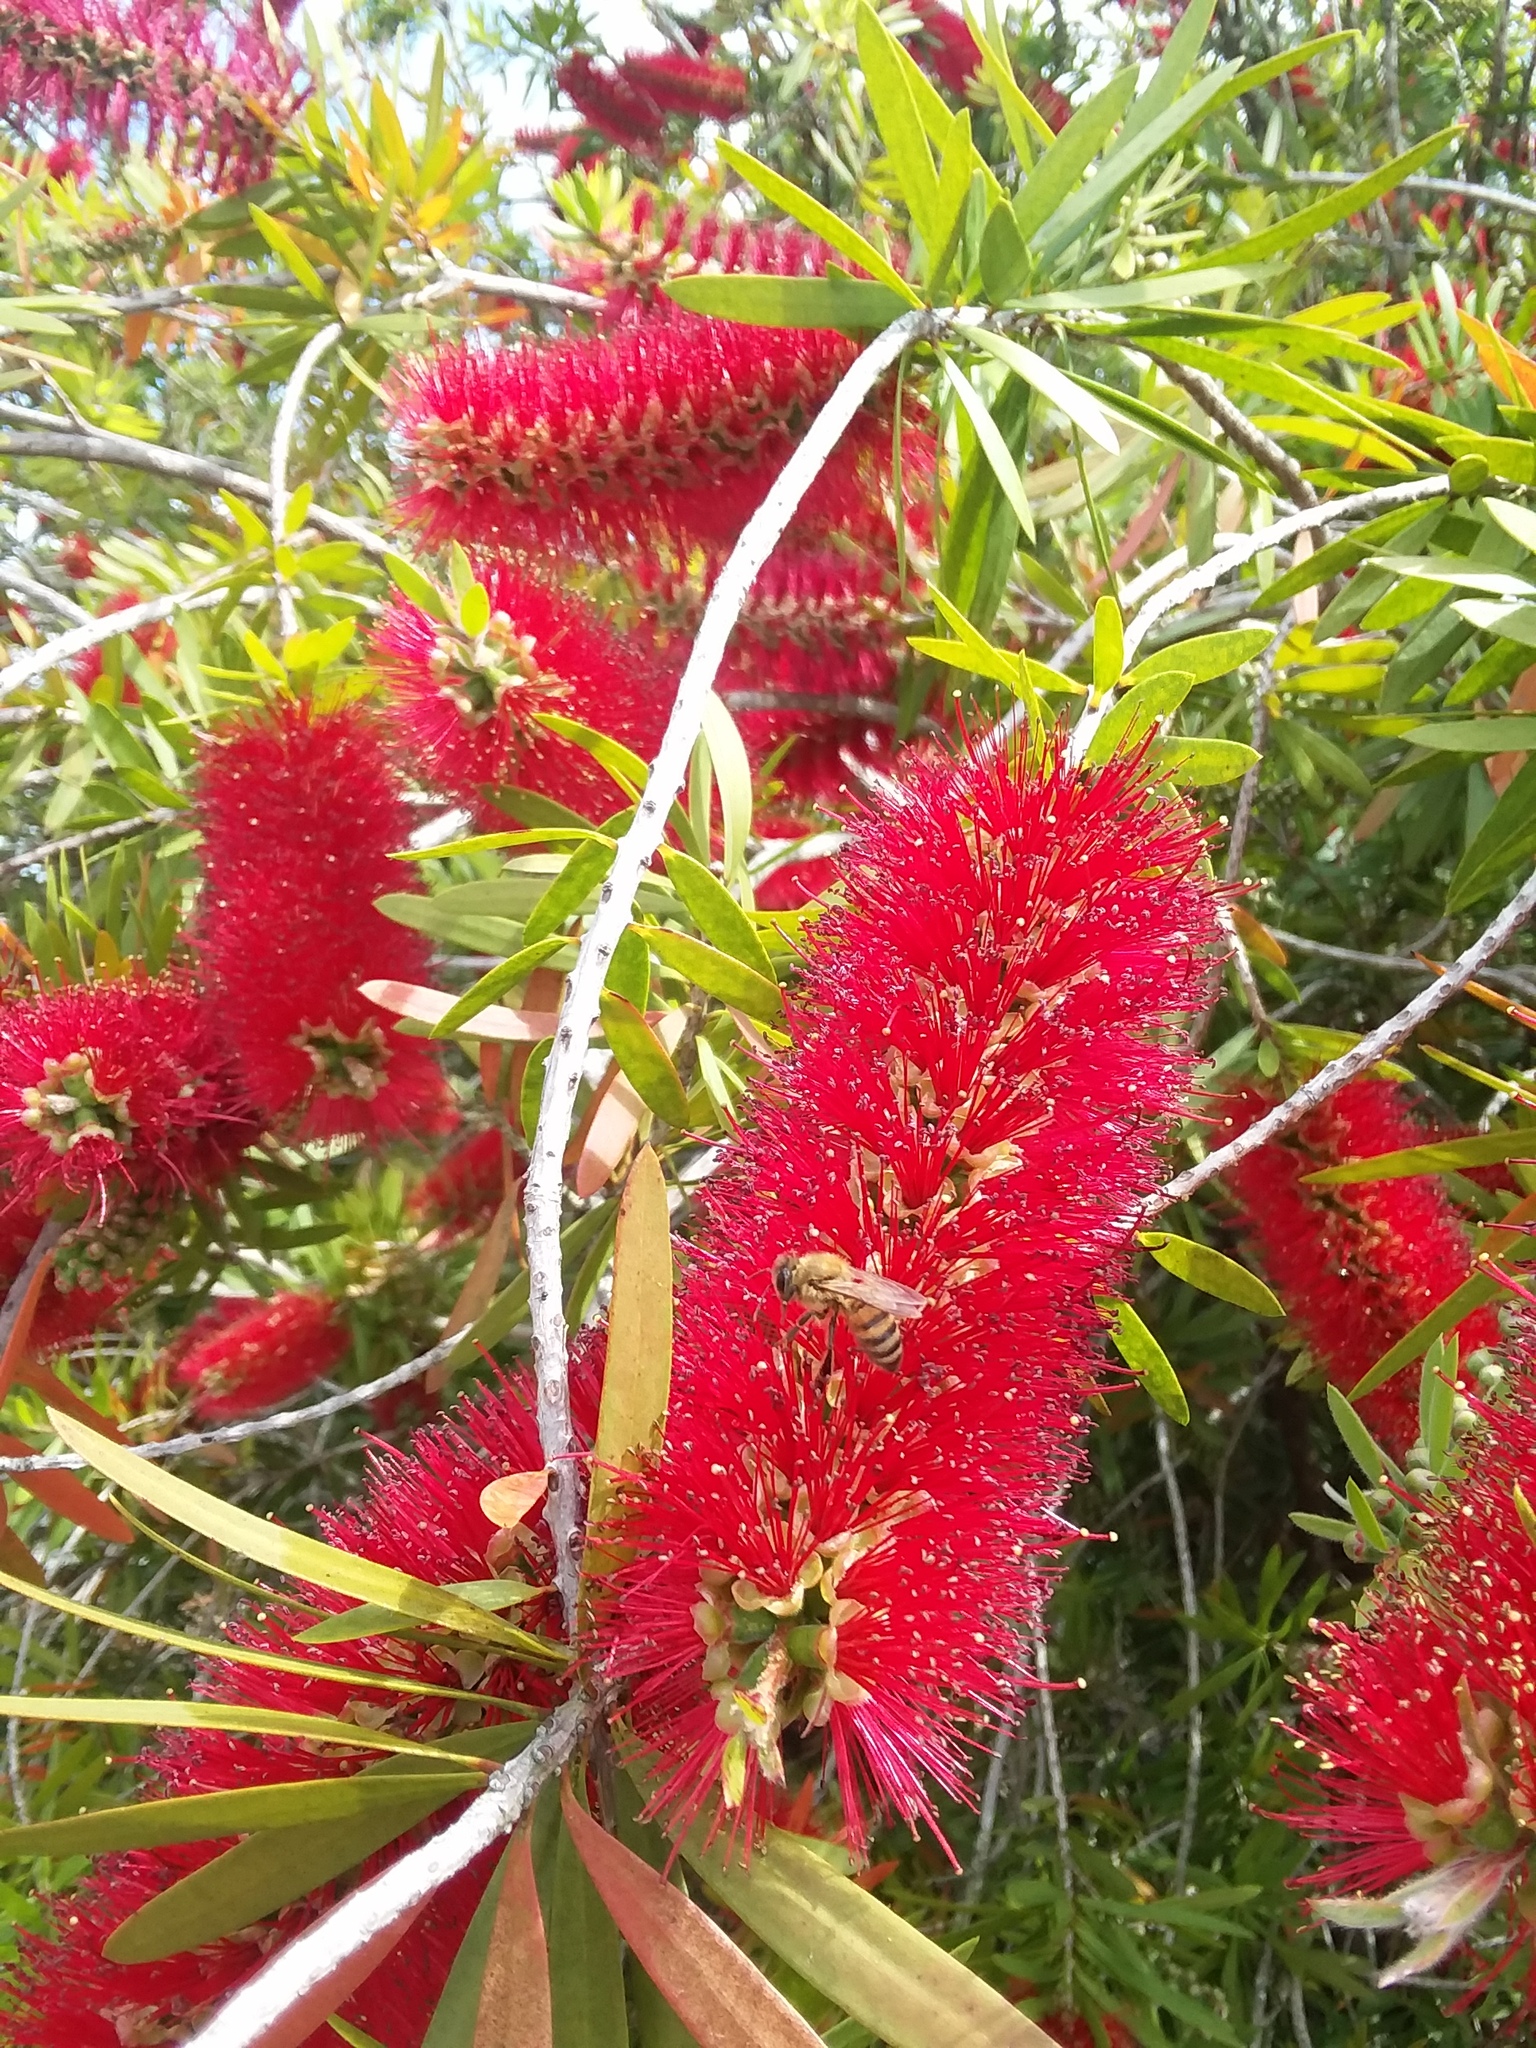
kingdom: Animalia
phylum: Arthropoda
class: Insecta
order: Hymenoptera
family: Apidae
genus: Apis
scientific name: Apis mellifera
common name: Honey bee
